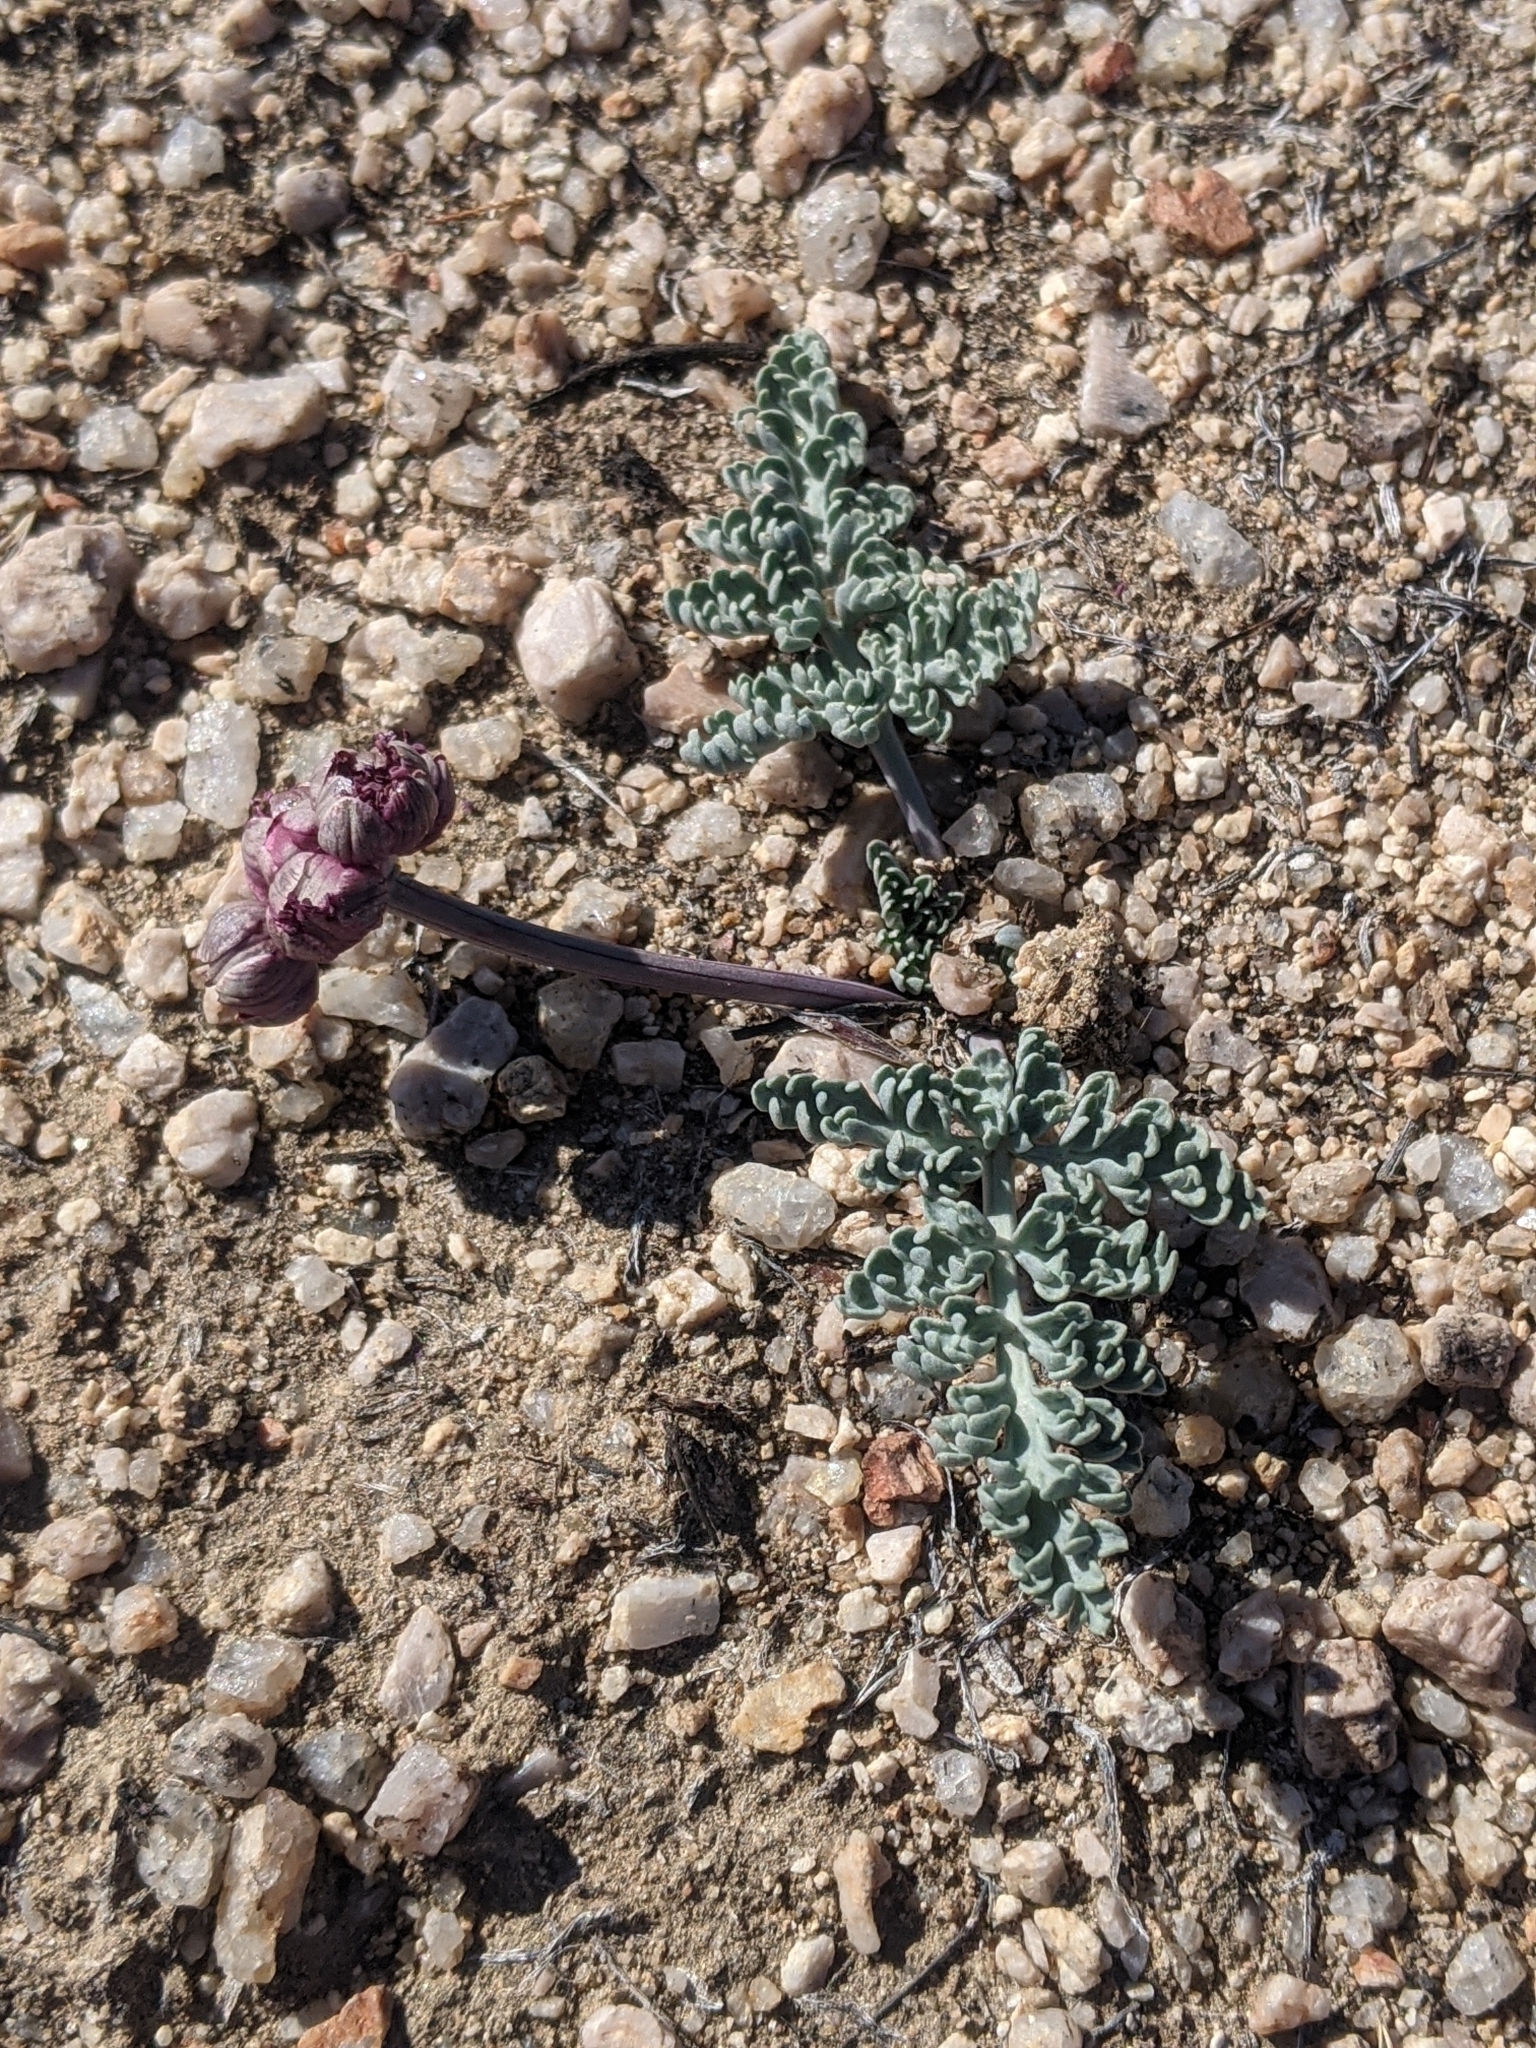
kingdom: Plantae
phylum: Tracheophyta
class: Magnoliopsida
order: Apiales
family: Apiaceae
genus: Vesper
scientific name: Vesper multinervatus
